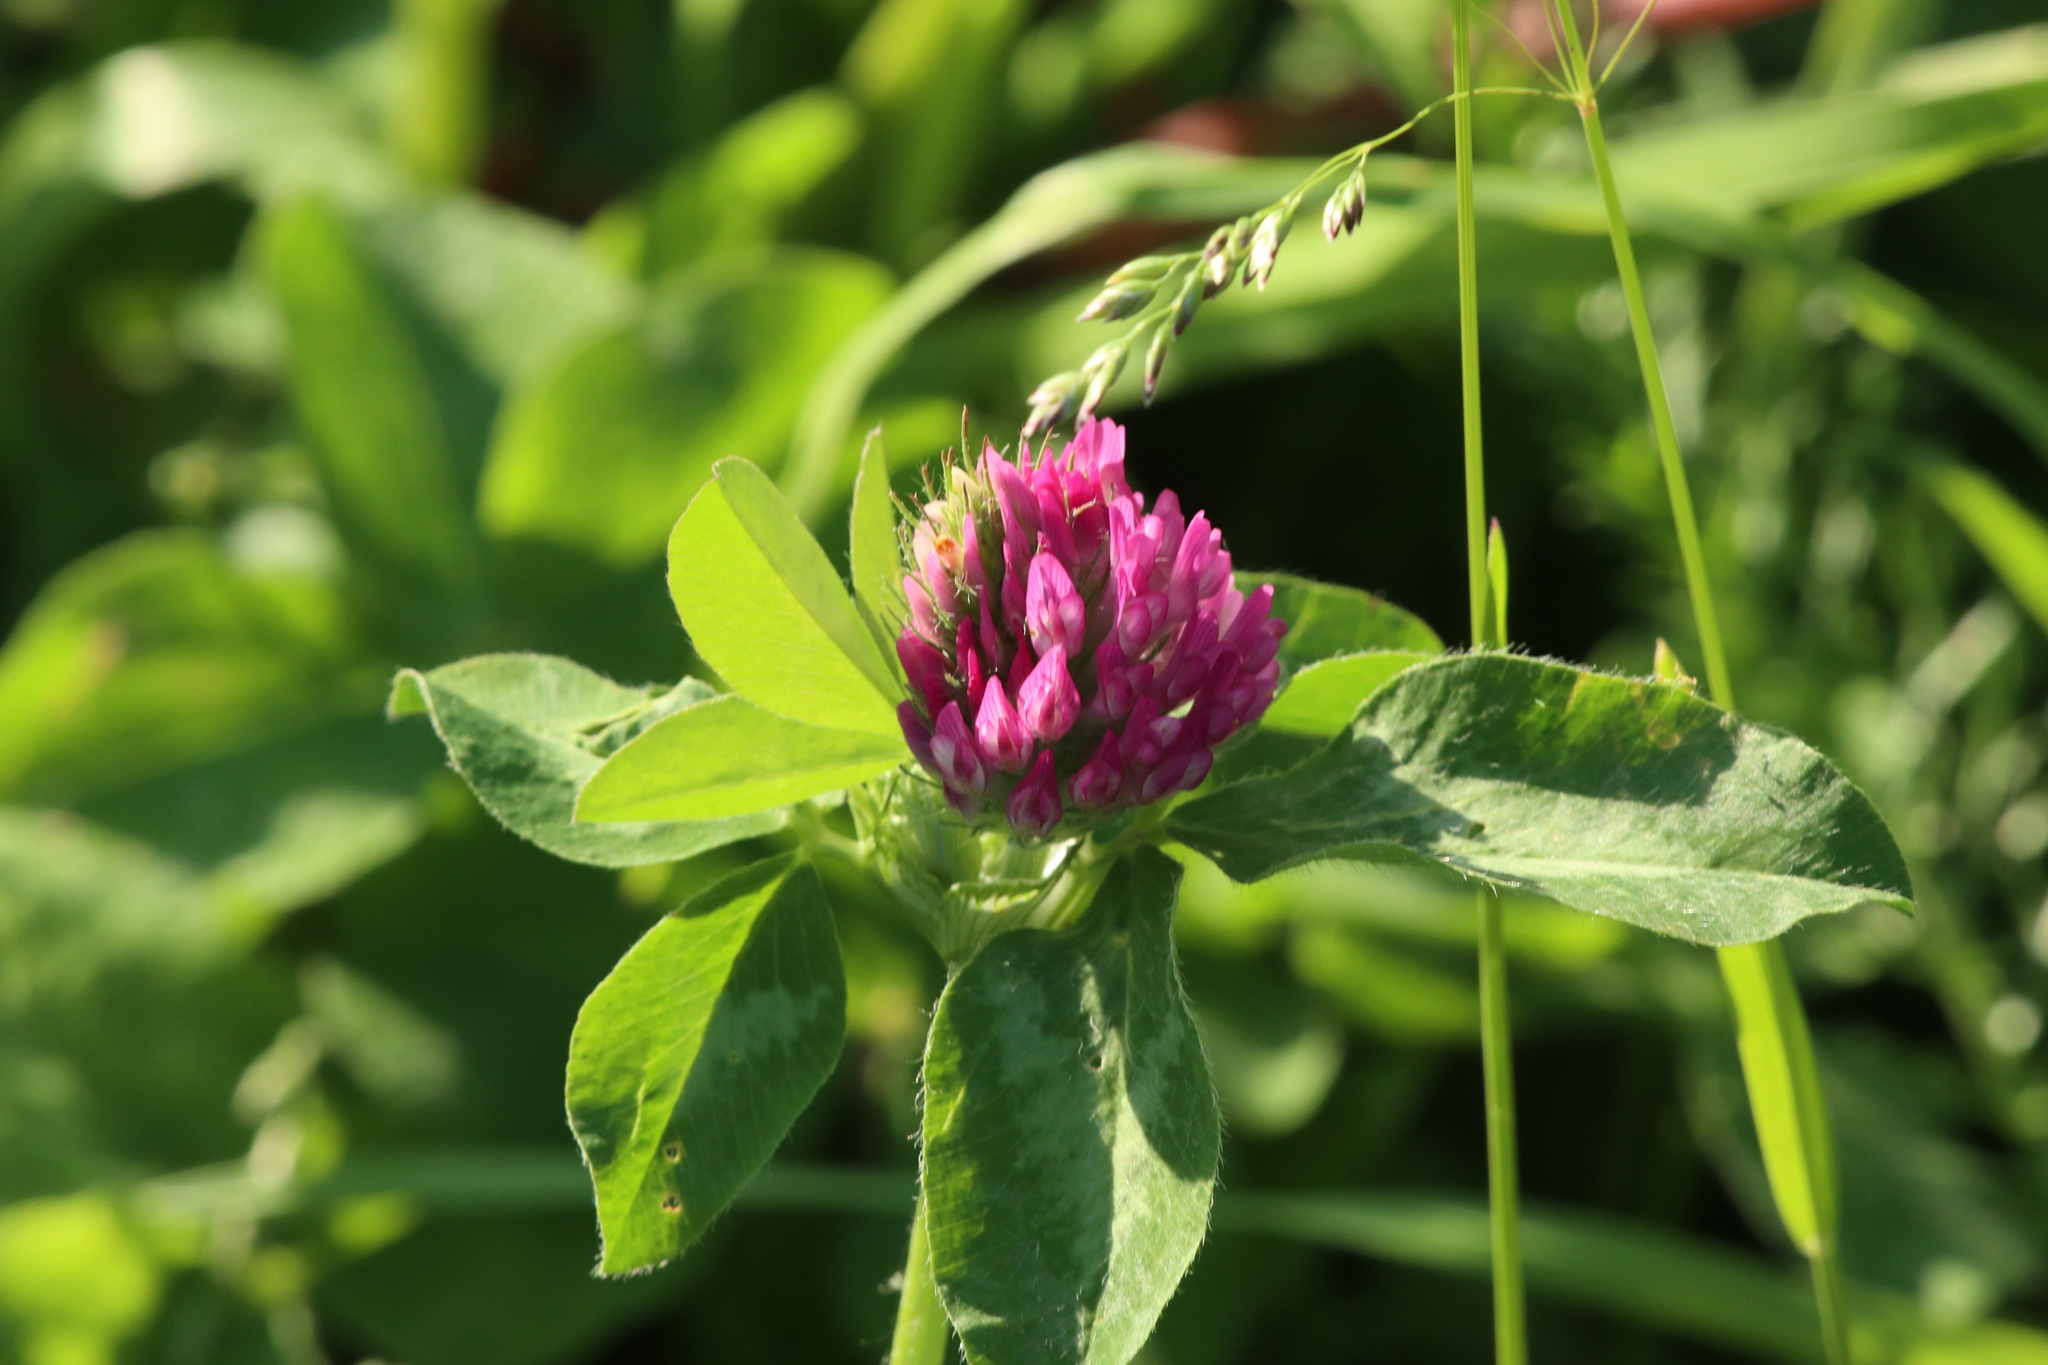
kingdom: Plantae
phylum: Tracheophyta
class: Magnoliopsida
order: Fabales
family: Fabaceae
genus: Trifolium
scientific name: Trifolium pratense
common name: Red clover
